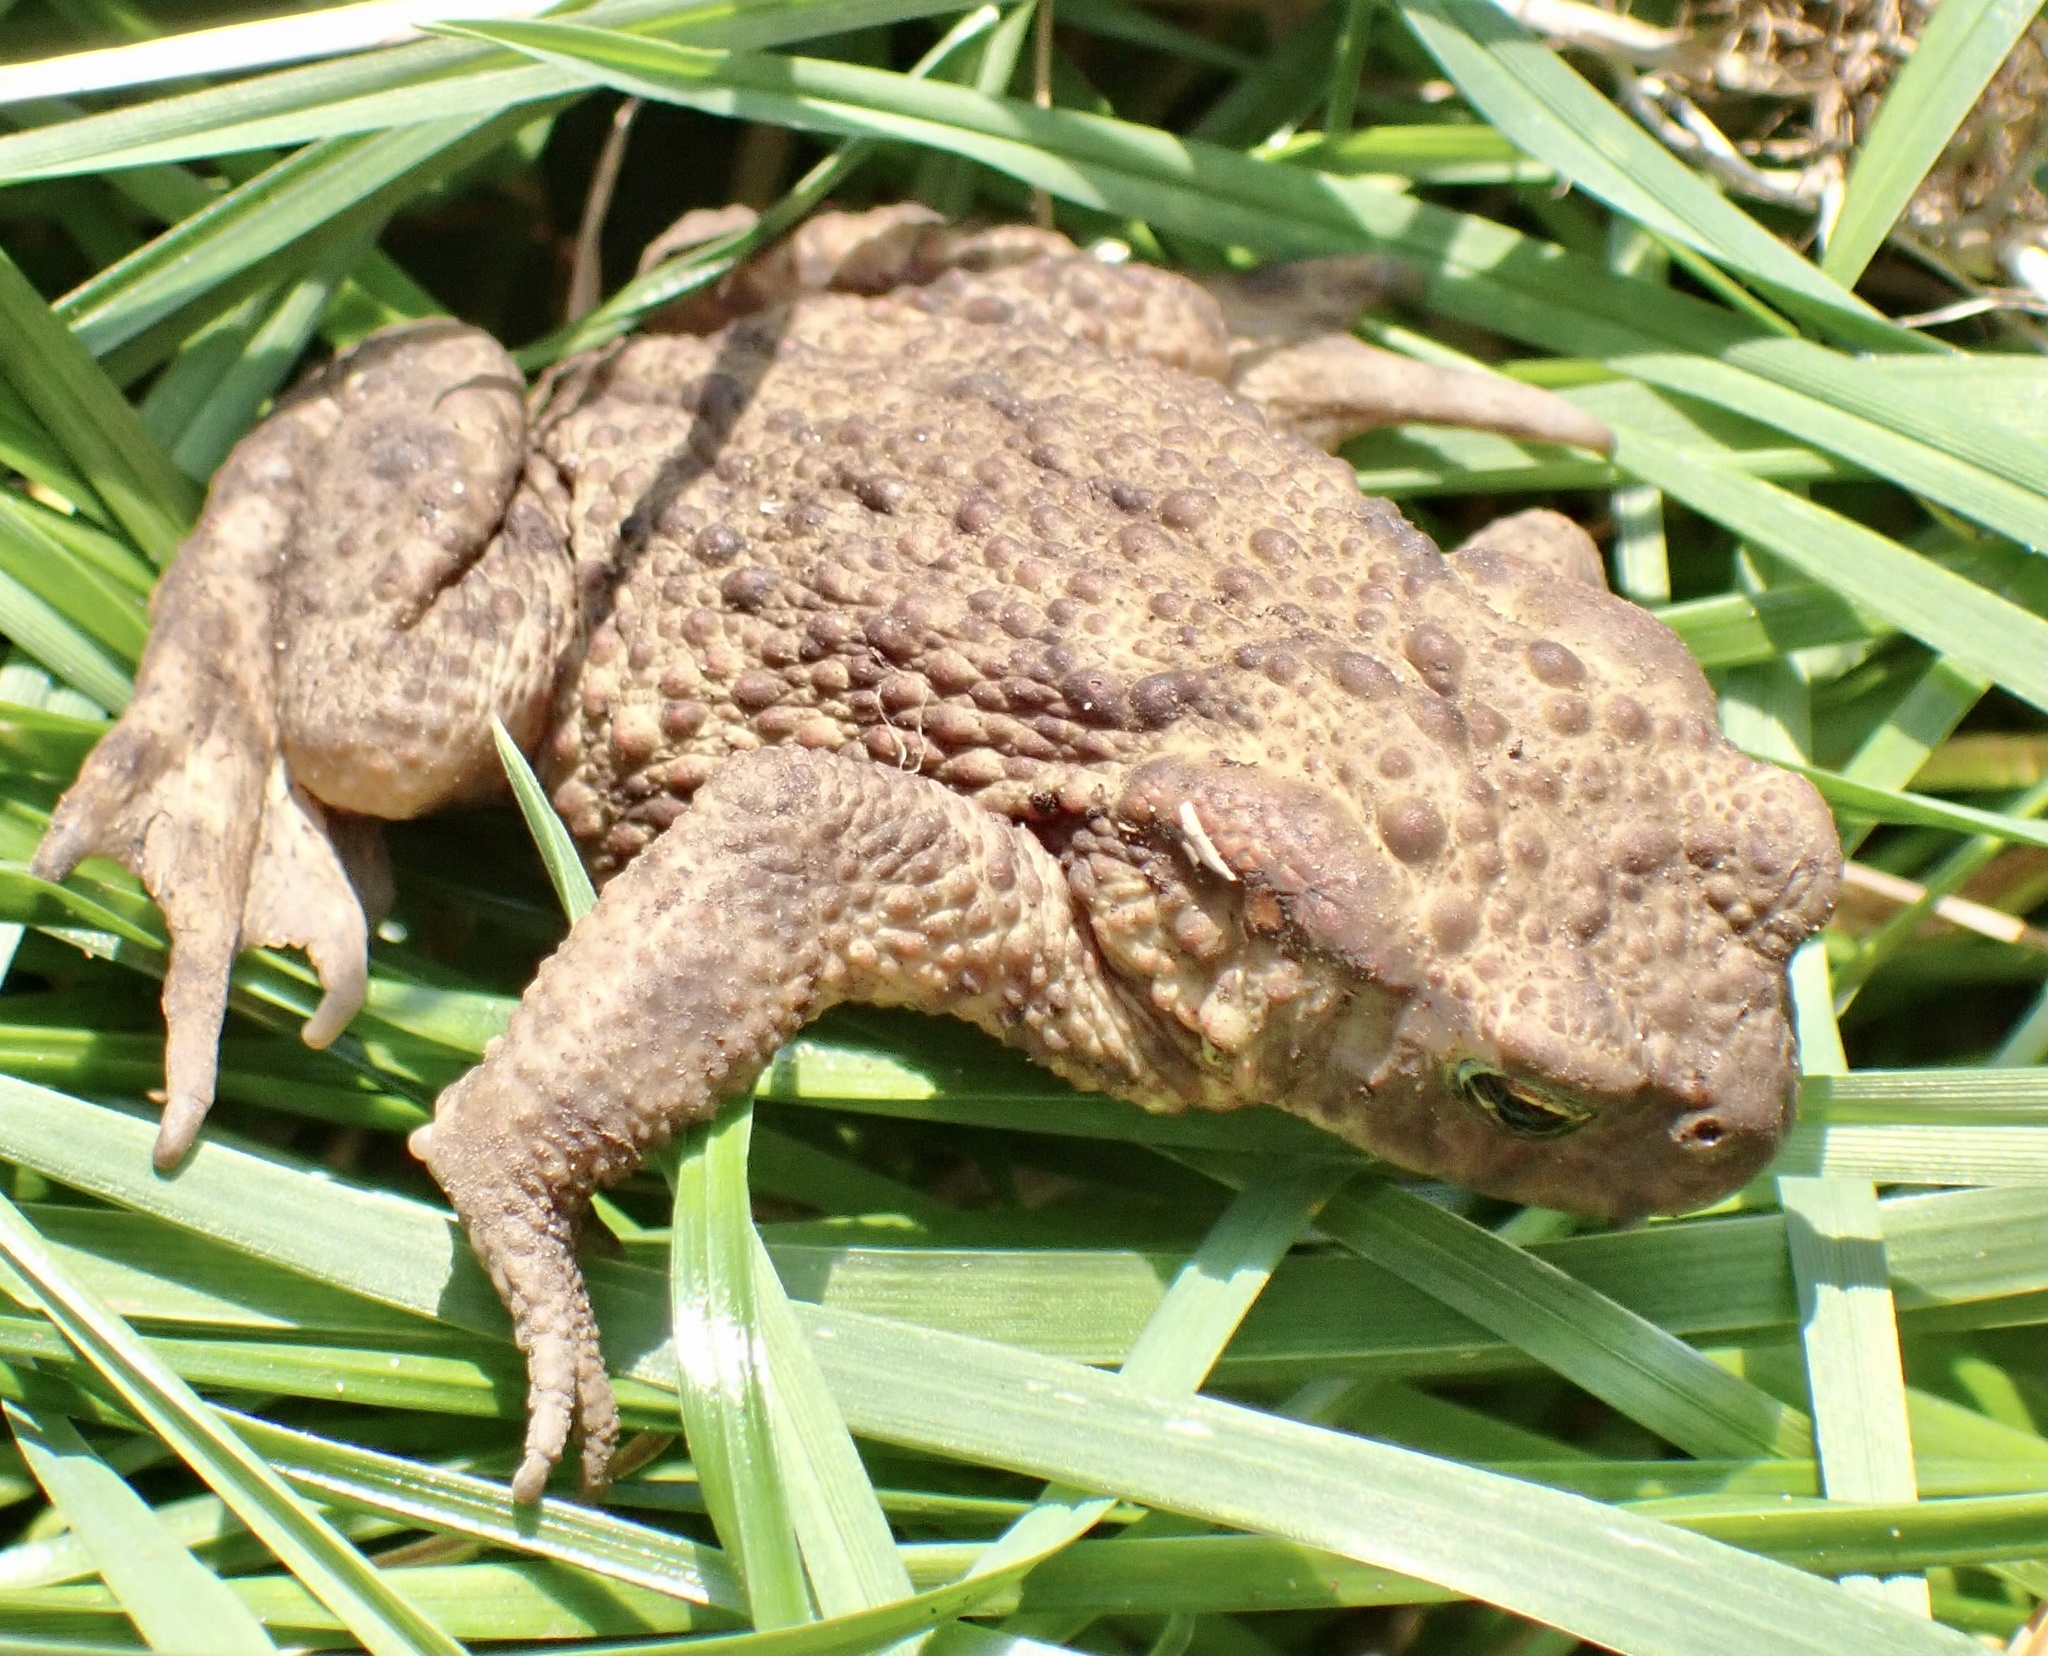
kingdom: Animalia
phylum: Chordata
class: Amphibia
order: Anura
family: Bufonidae
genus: Bufo
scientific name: Bufo bufo
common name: Common toad
